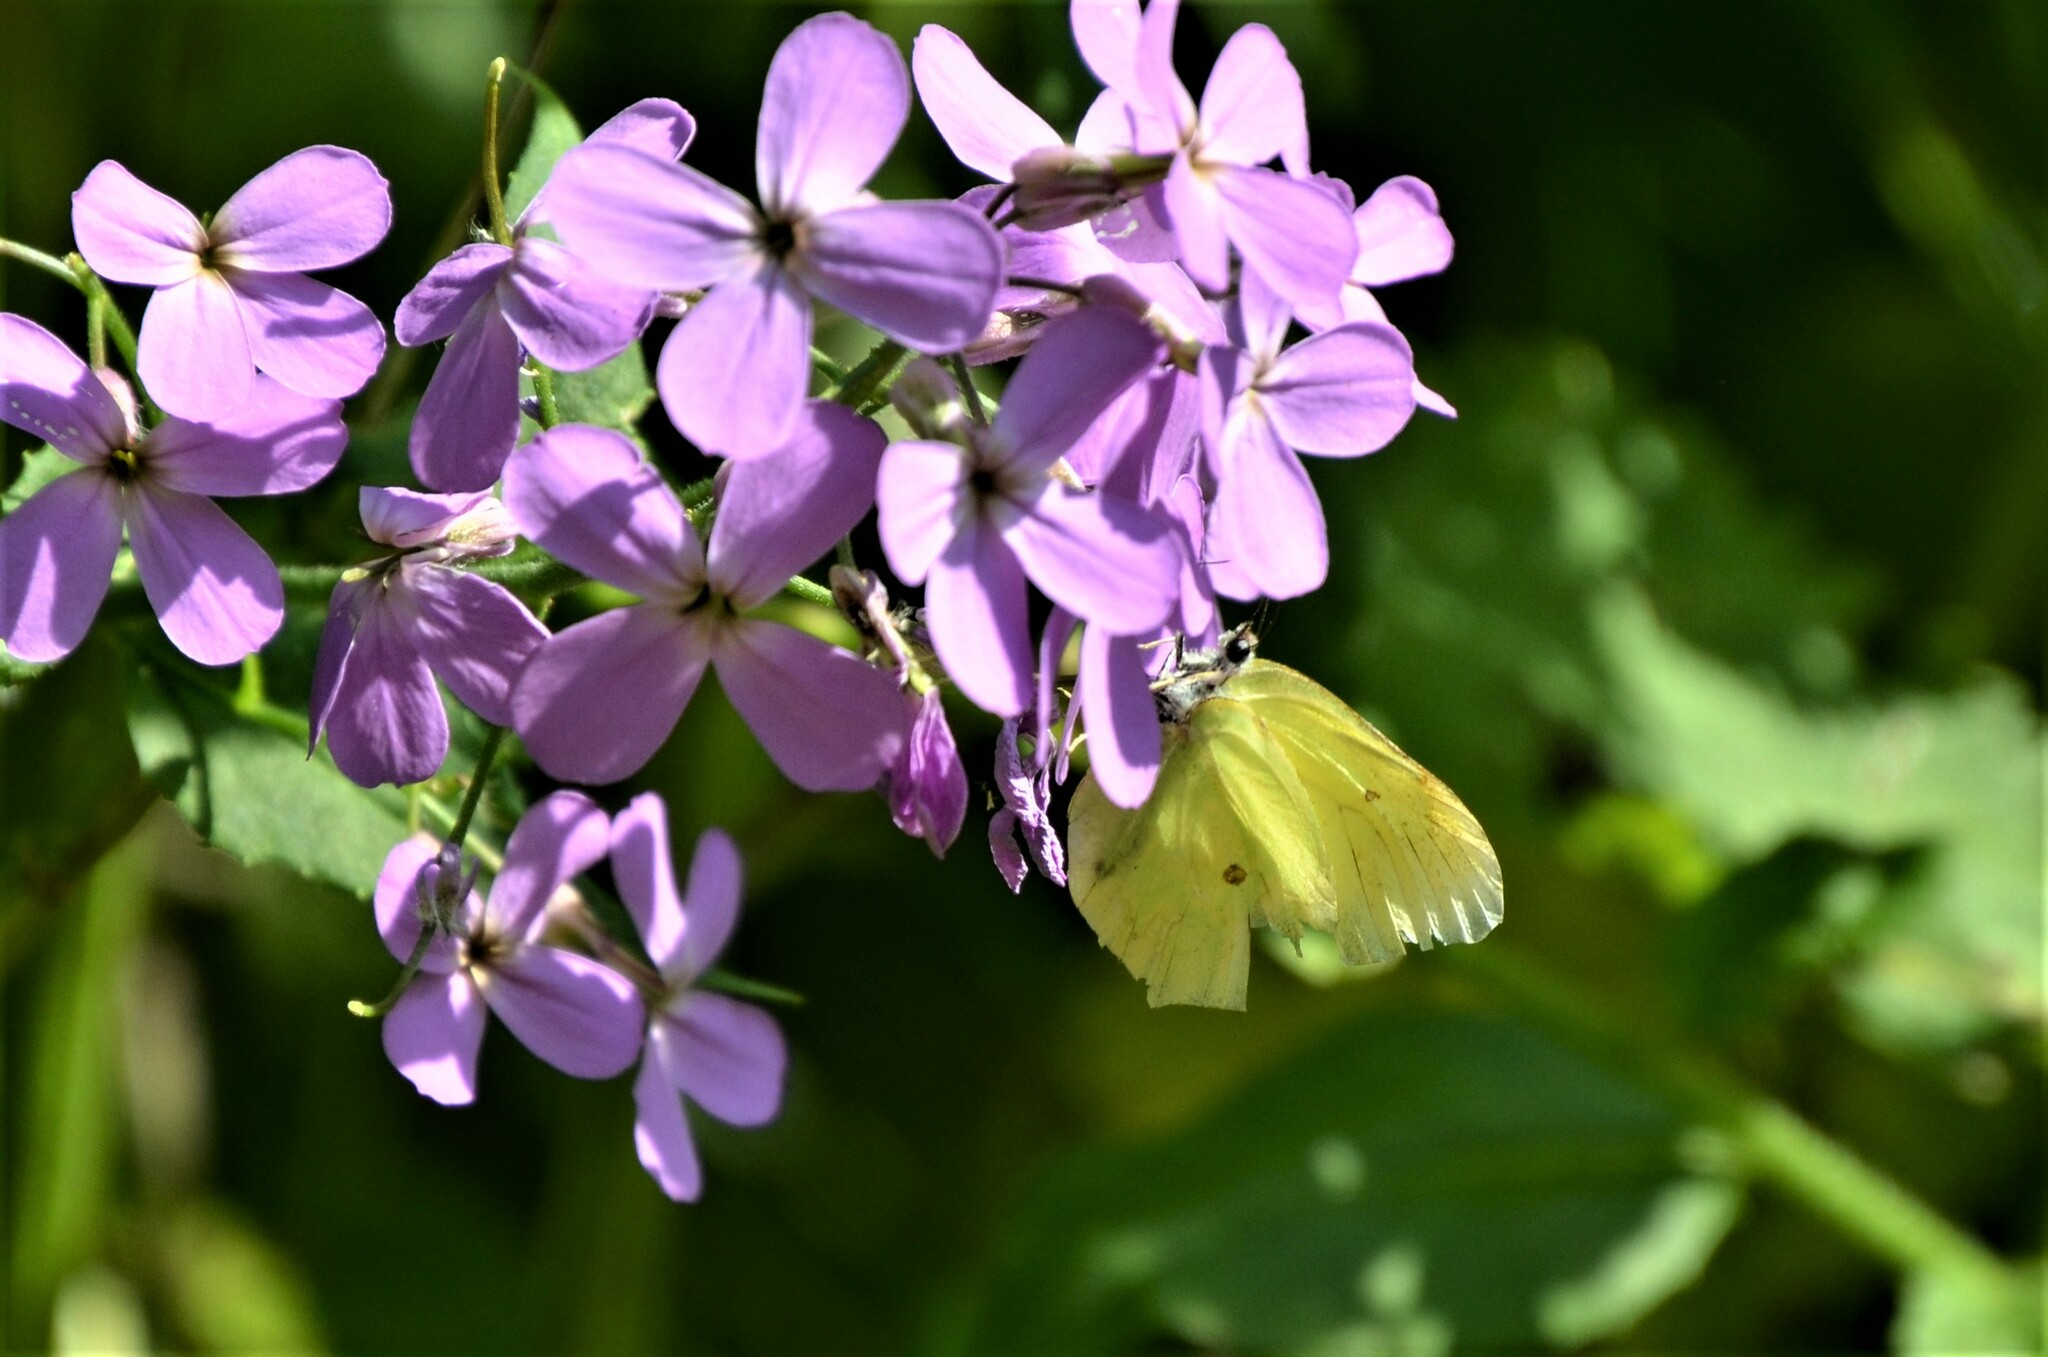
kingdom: Animalia
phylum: Arthropoda
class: Insecta
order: Lepidoptera
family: Pieridae
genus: Gonepteryx
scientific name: Gonepteryx rhamni
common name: Brimstone
